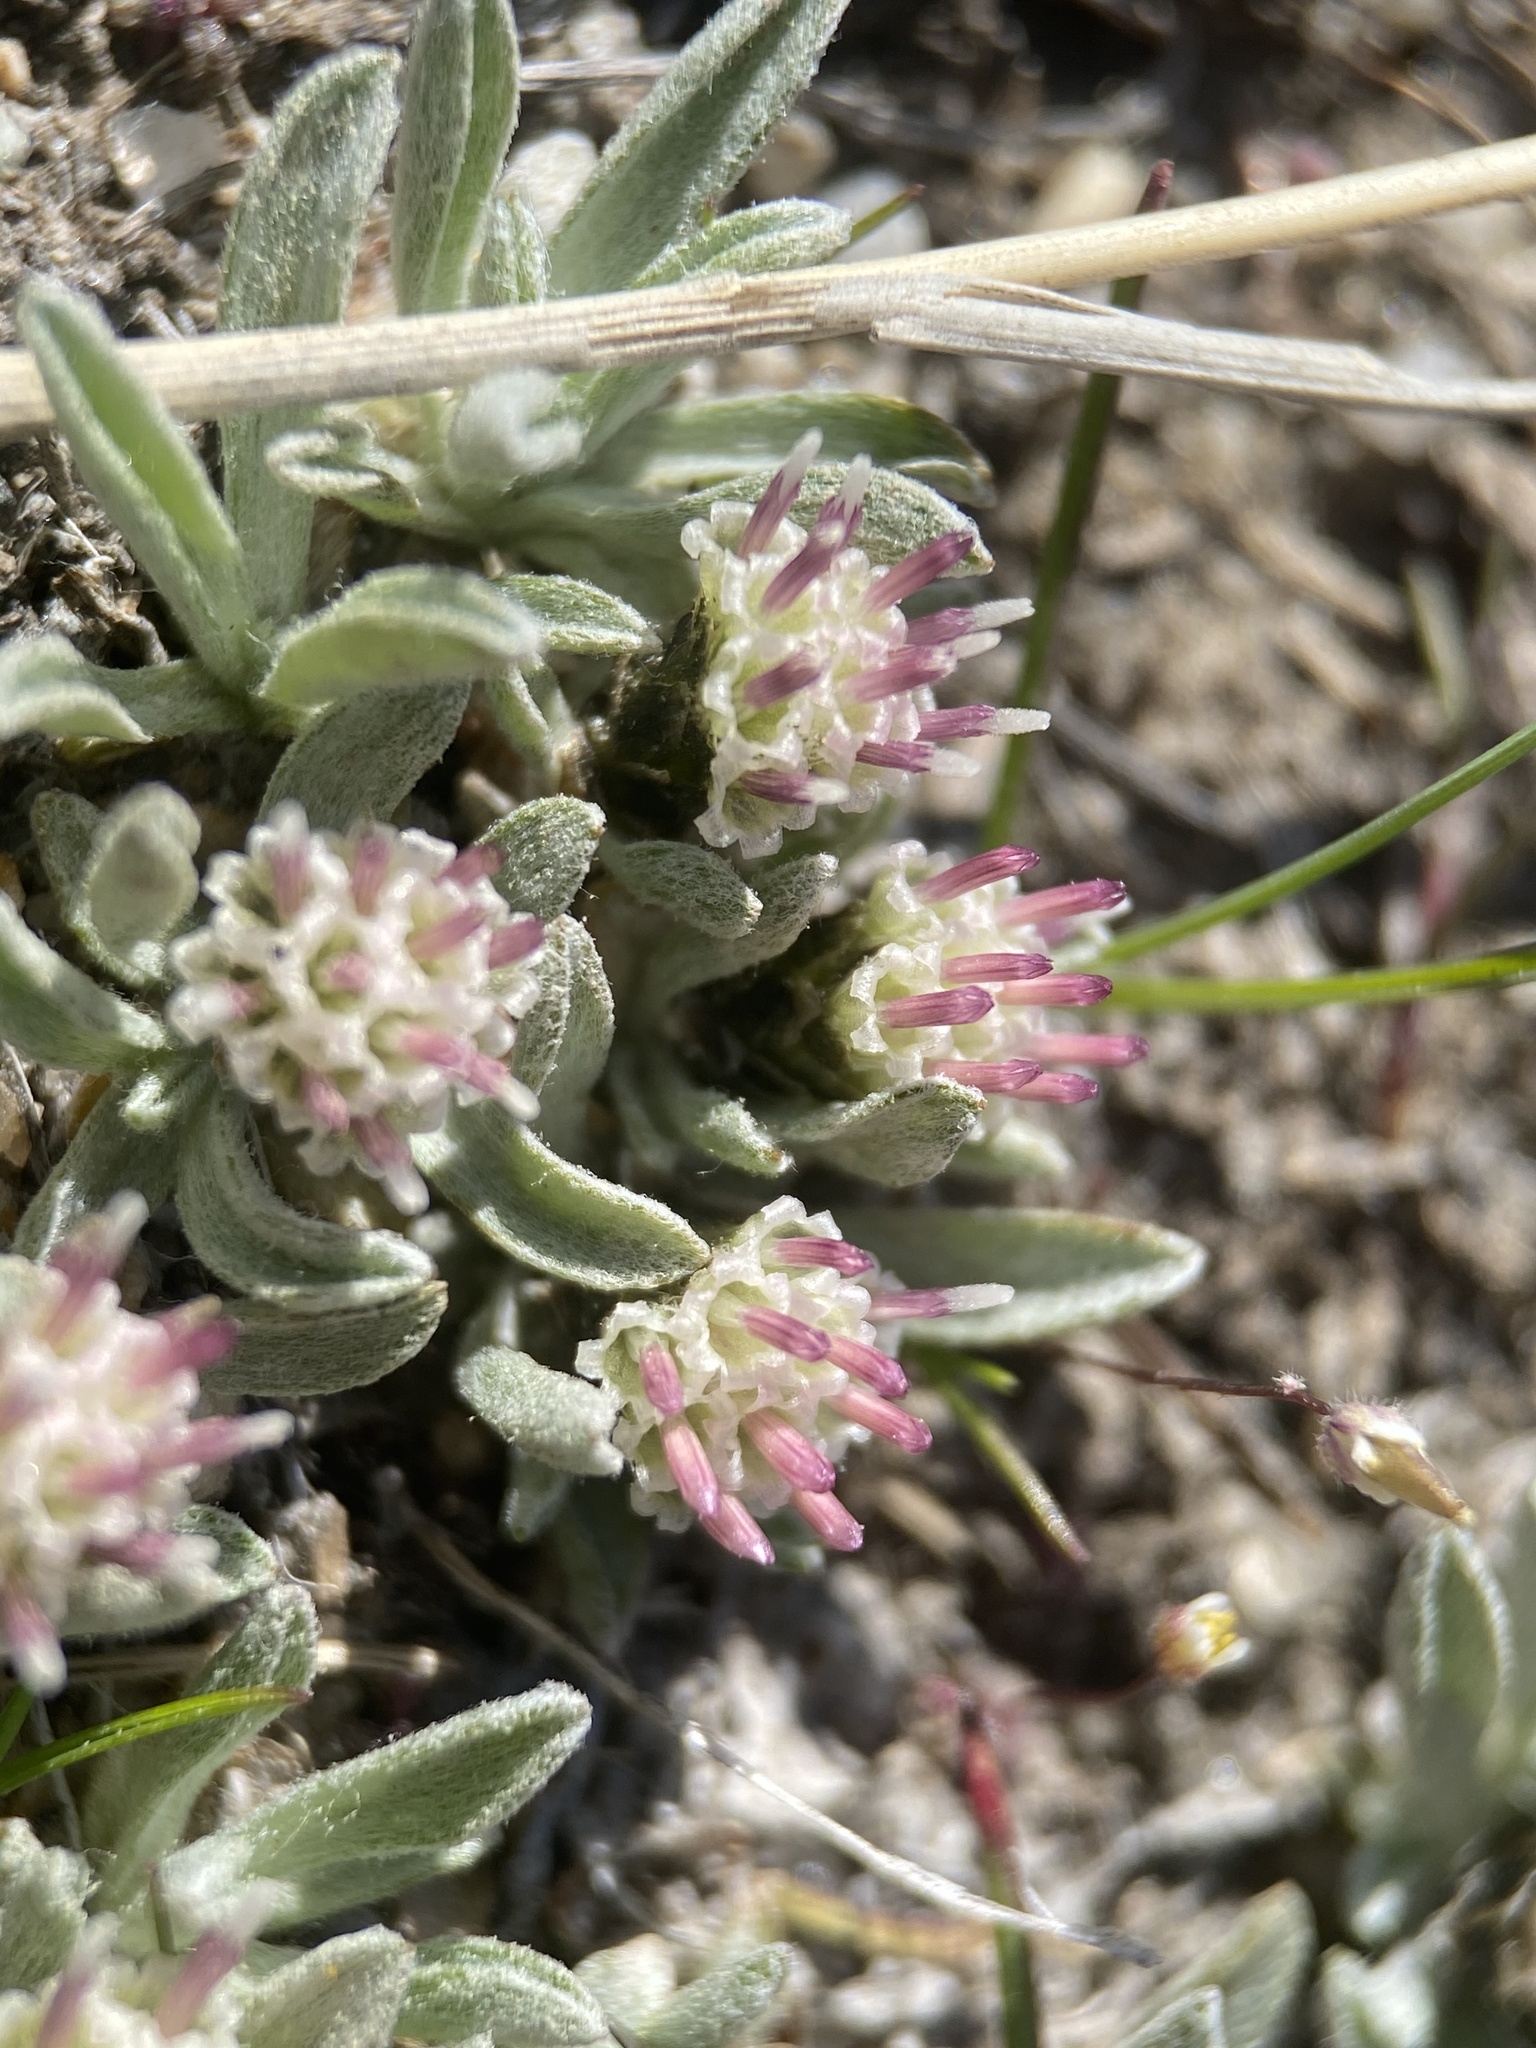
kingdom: Plantae
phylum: Tracheophyta
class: Magnoliopsida
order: Asterales
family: Asteraceae
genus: Antennaria
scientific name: Antennaria dimorpha
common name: Cushion pussytoes
